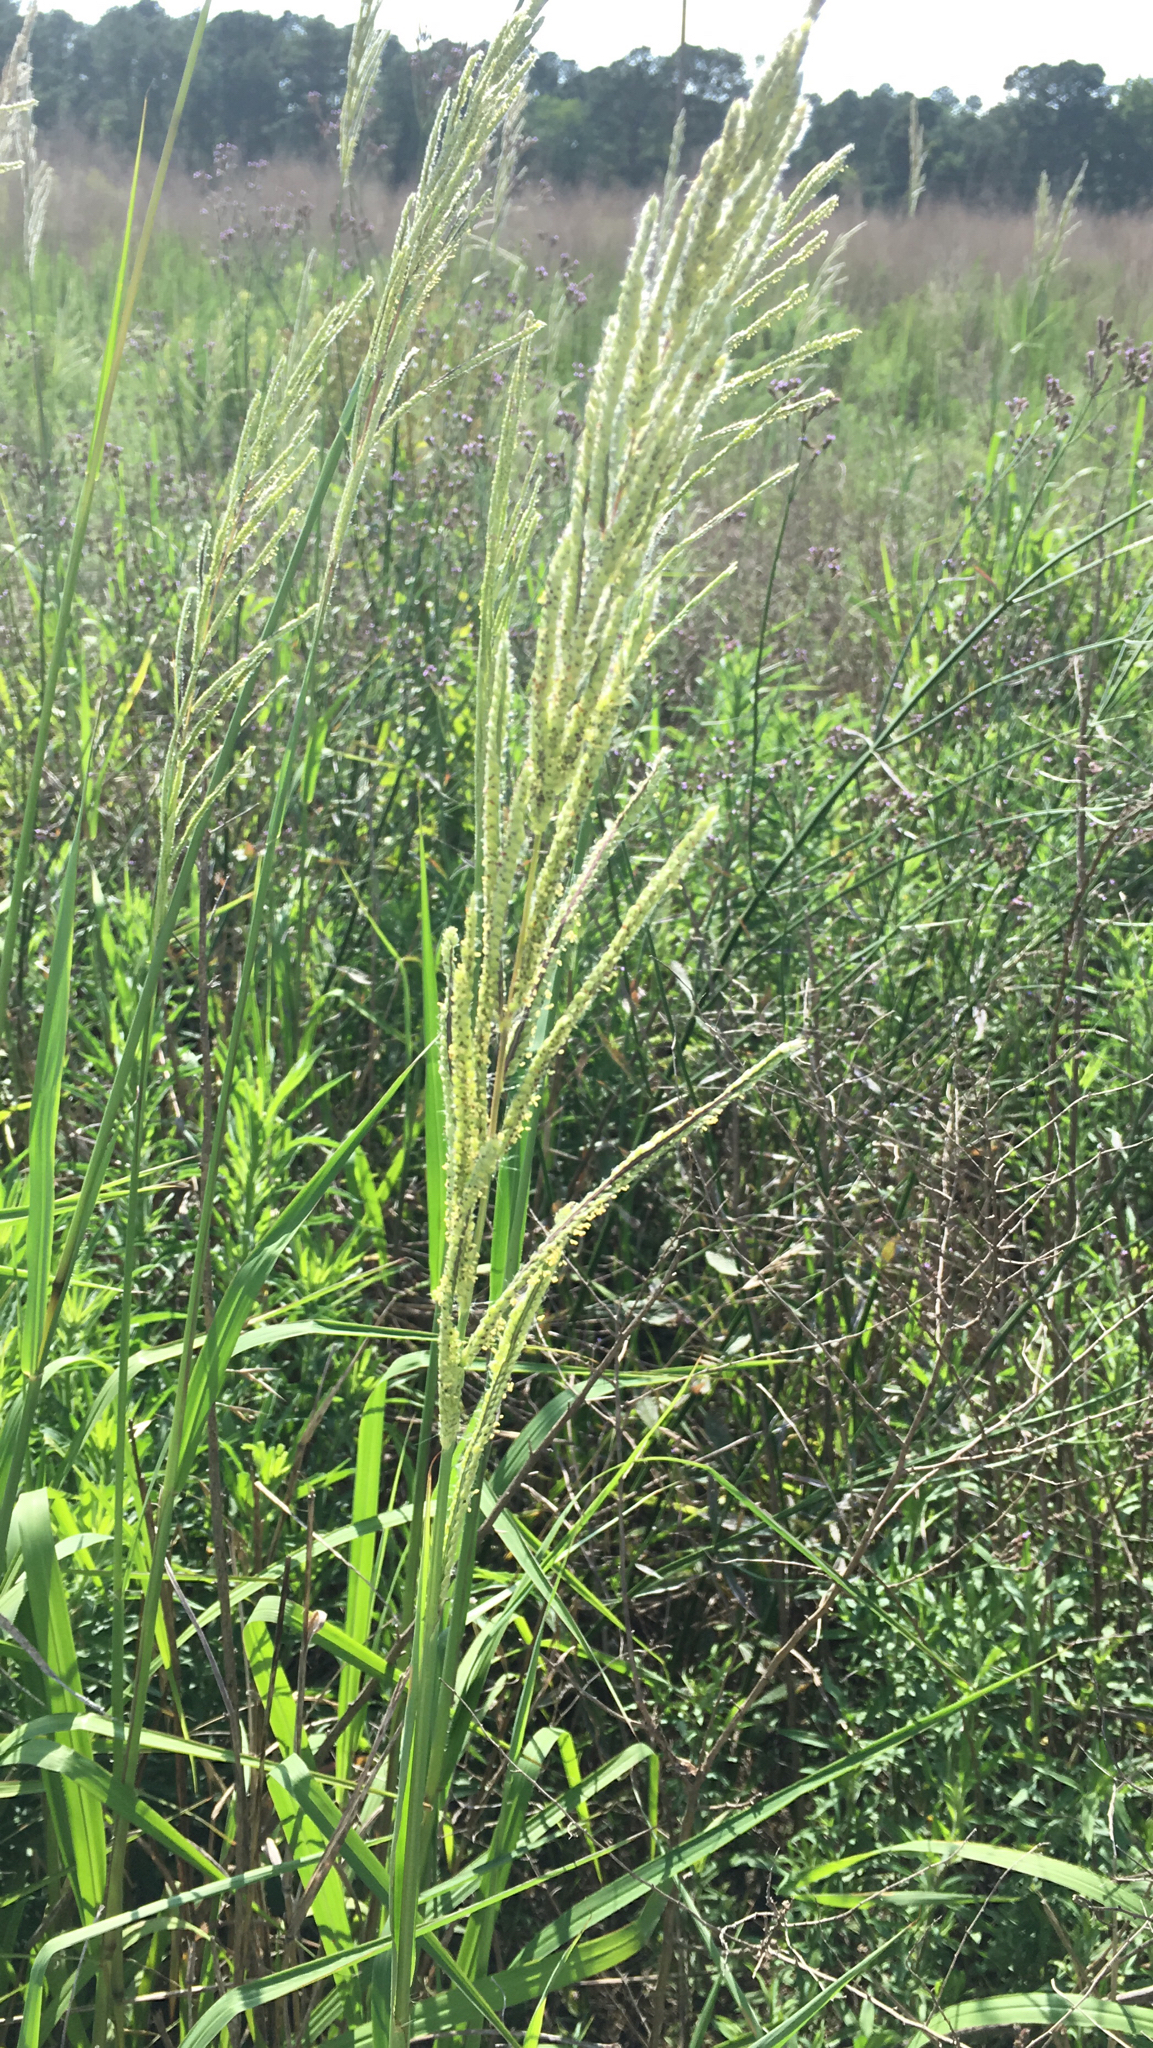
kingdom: Plantae
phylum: Tracheophyta
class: Liliopsida
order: Poales
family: Poaceae
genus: Paspalum
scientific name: Paspalum urvillei
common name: Vasey's grass
